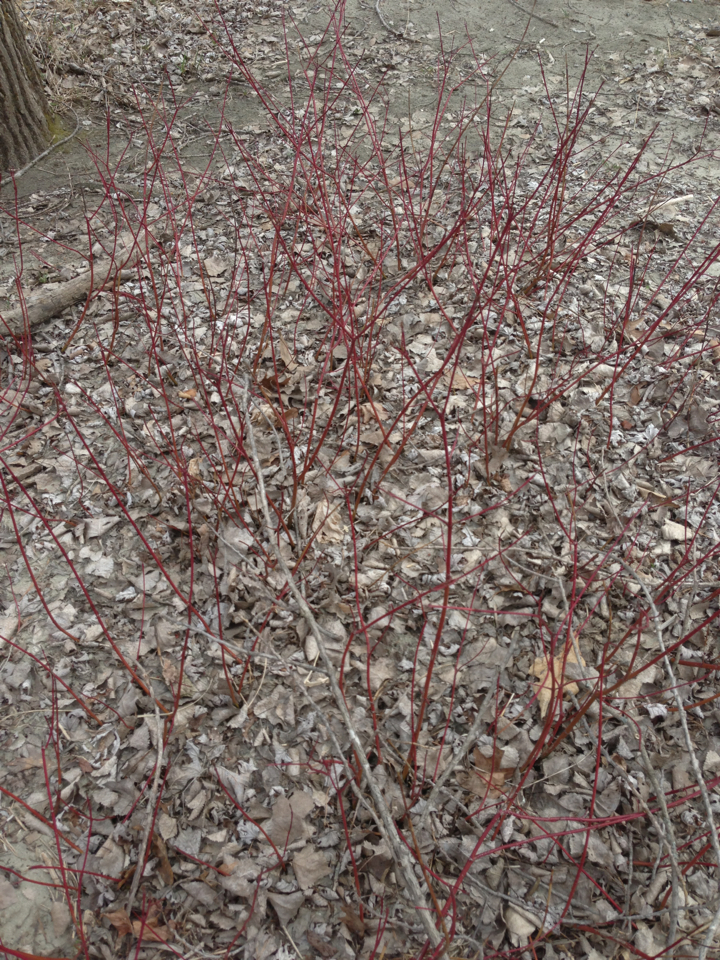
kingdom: Plantae
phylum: Tracheophyta
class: Magnoliopsida
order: Cornales
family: Cornaceae
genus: Cornus
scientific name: Cornus sericea
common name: Red-osier dogwood
